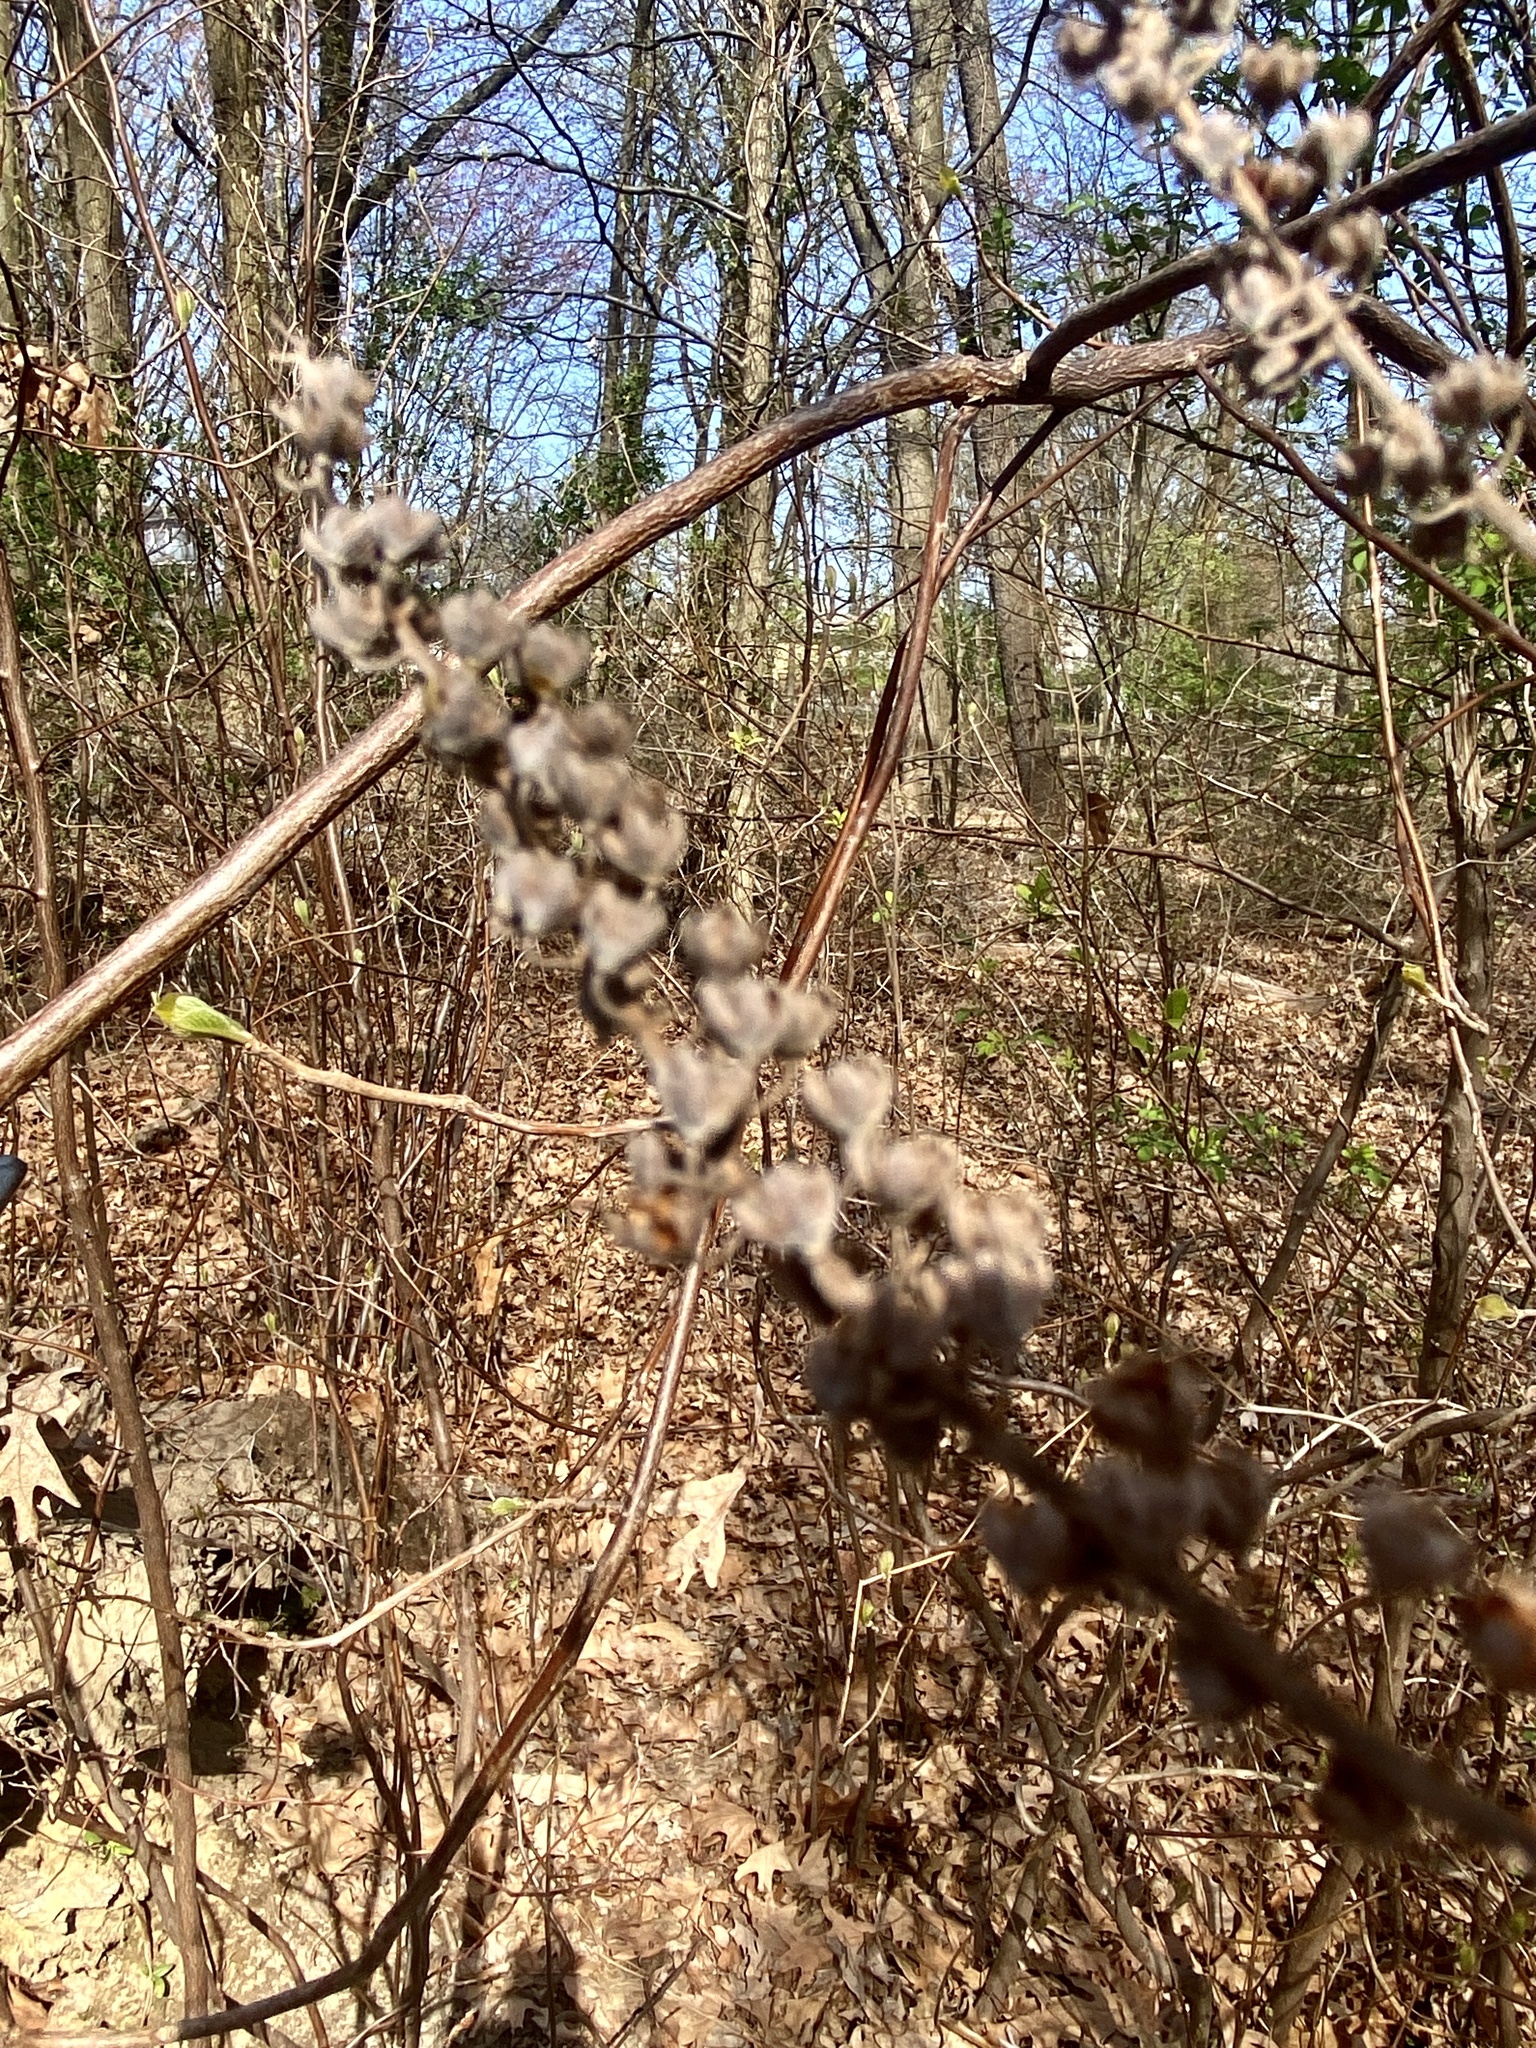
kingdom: Plantae
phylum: Tracheophyta
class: Magnoliopsida
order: Ericales
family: Clethraceae
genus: Clethra
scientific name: Clethra alnifolia
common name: Sweet pepperbush
